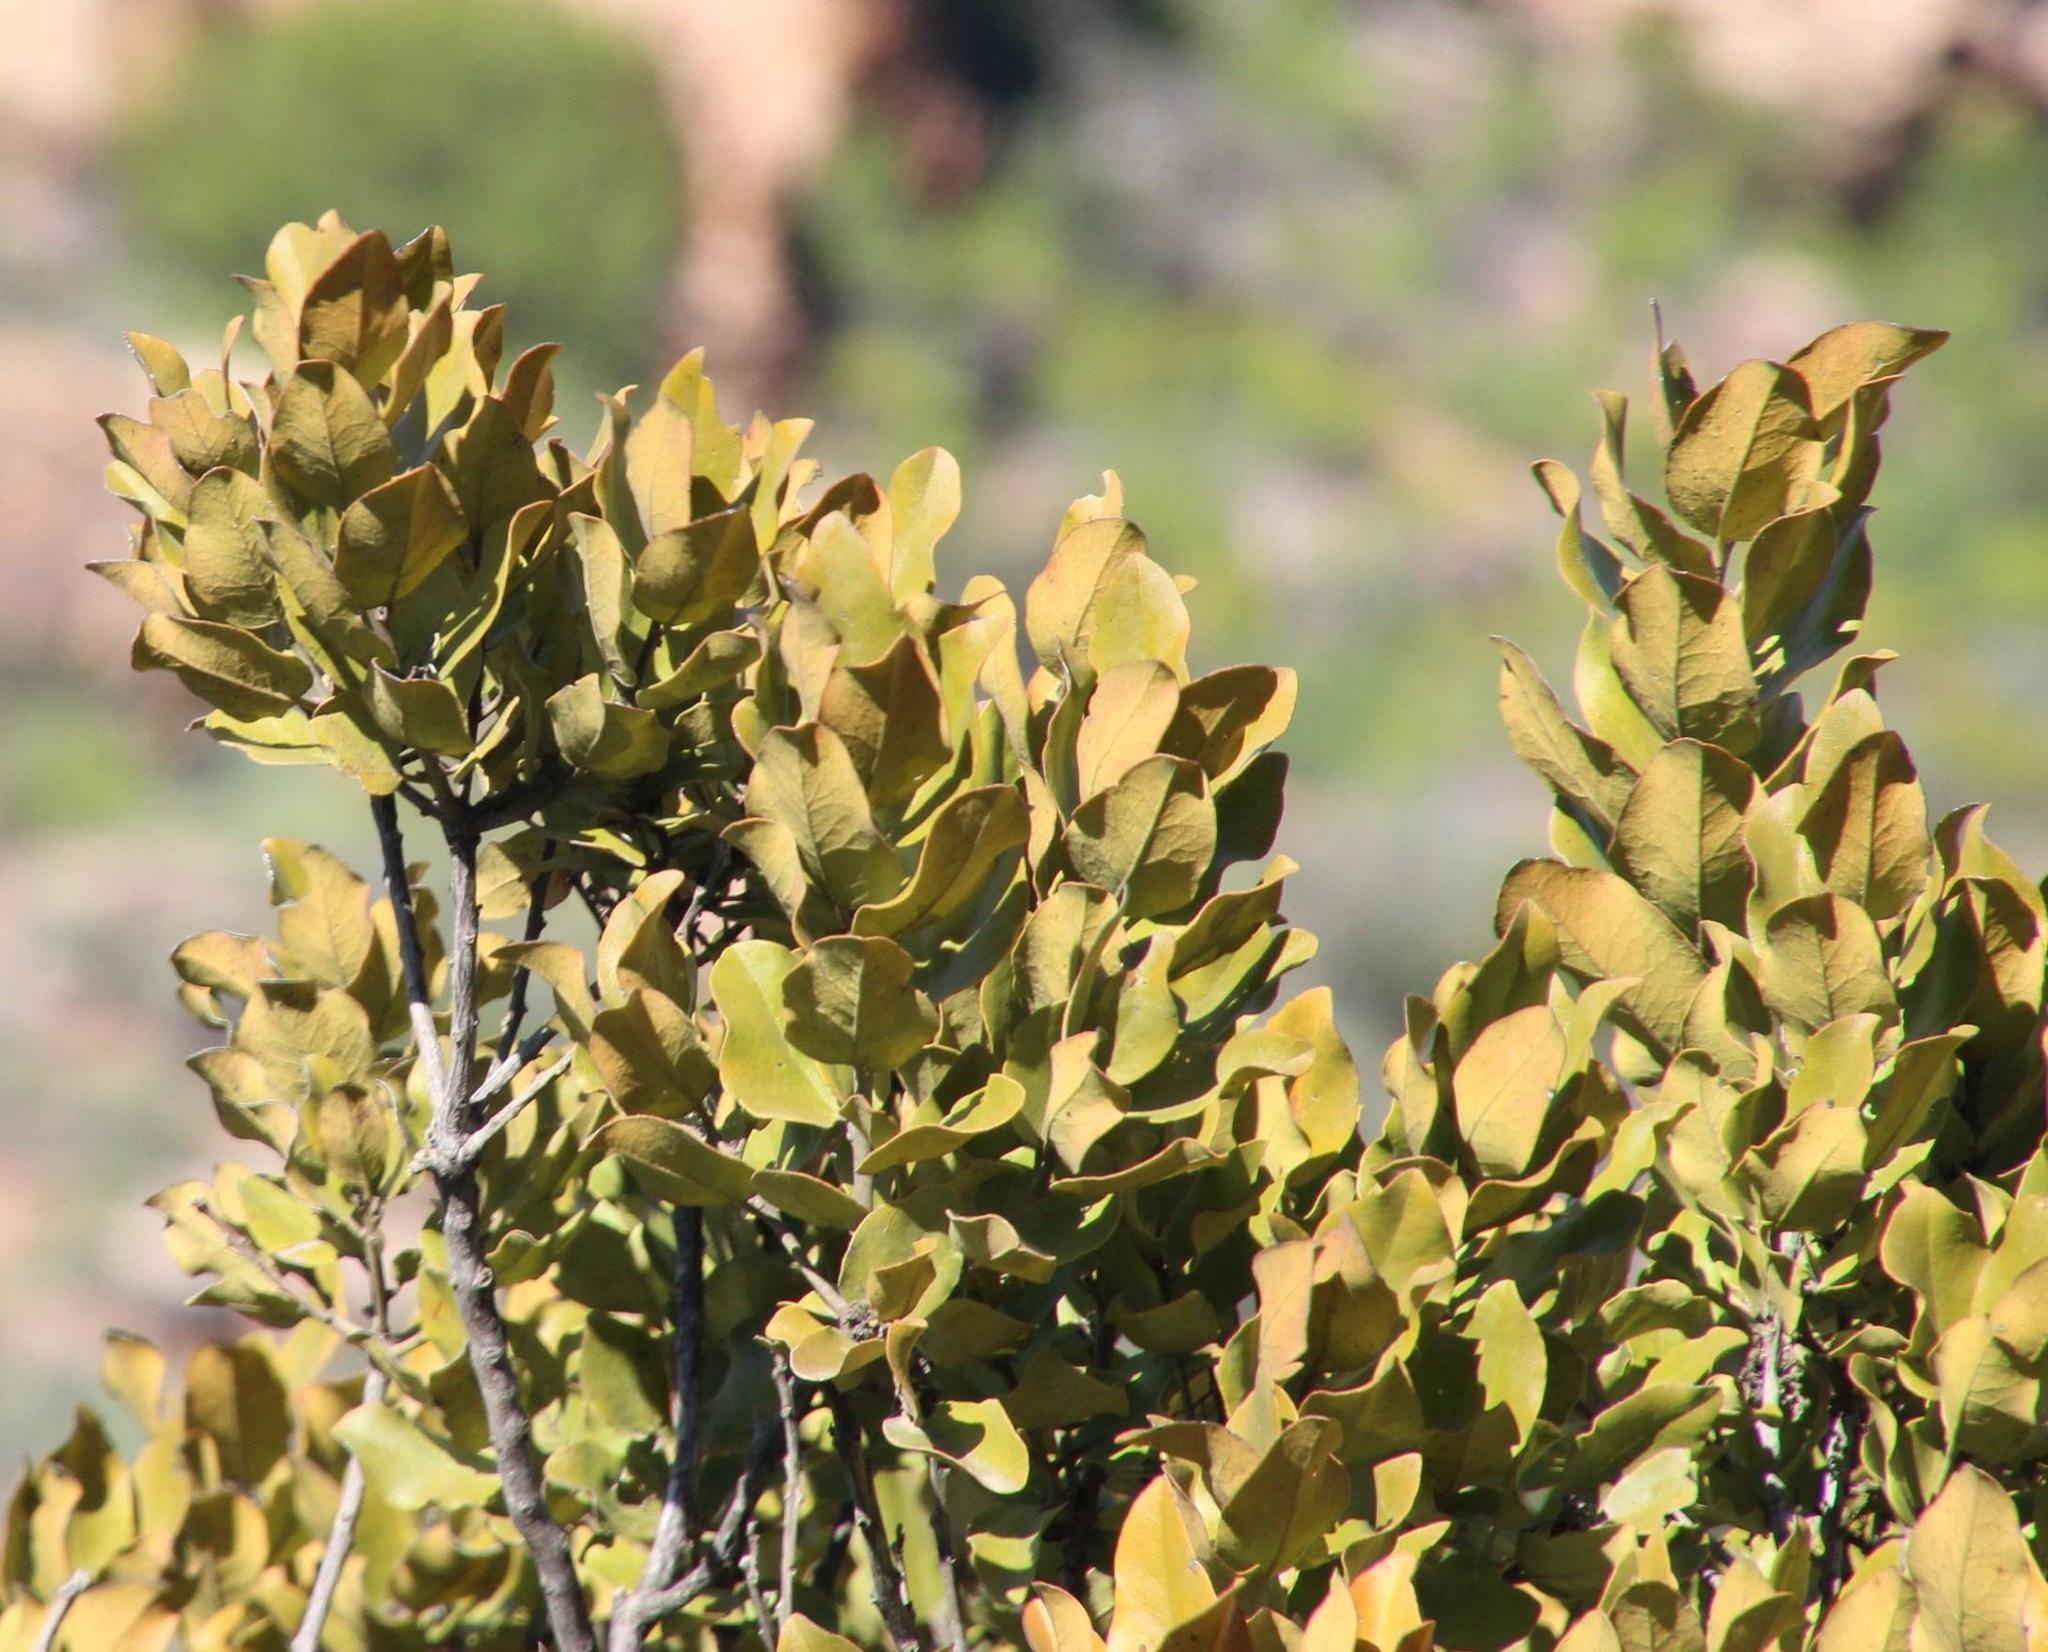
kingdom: Plantae
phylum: Tracheophyta
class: Magnoliopsida
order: Ericales
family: Ebenaceae
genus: Euclea
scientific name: Euclea tomentosa
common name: Honey guarri
